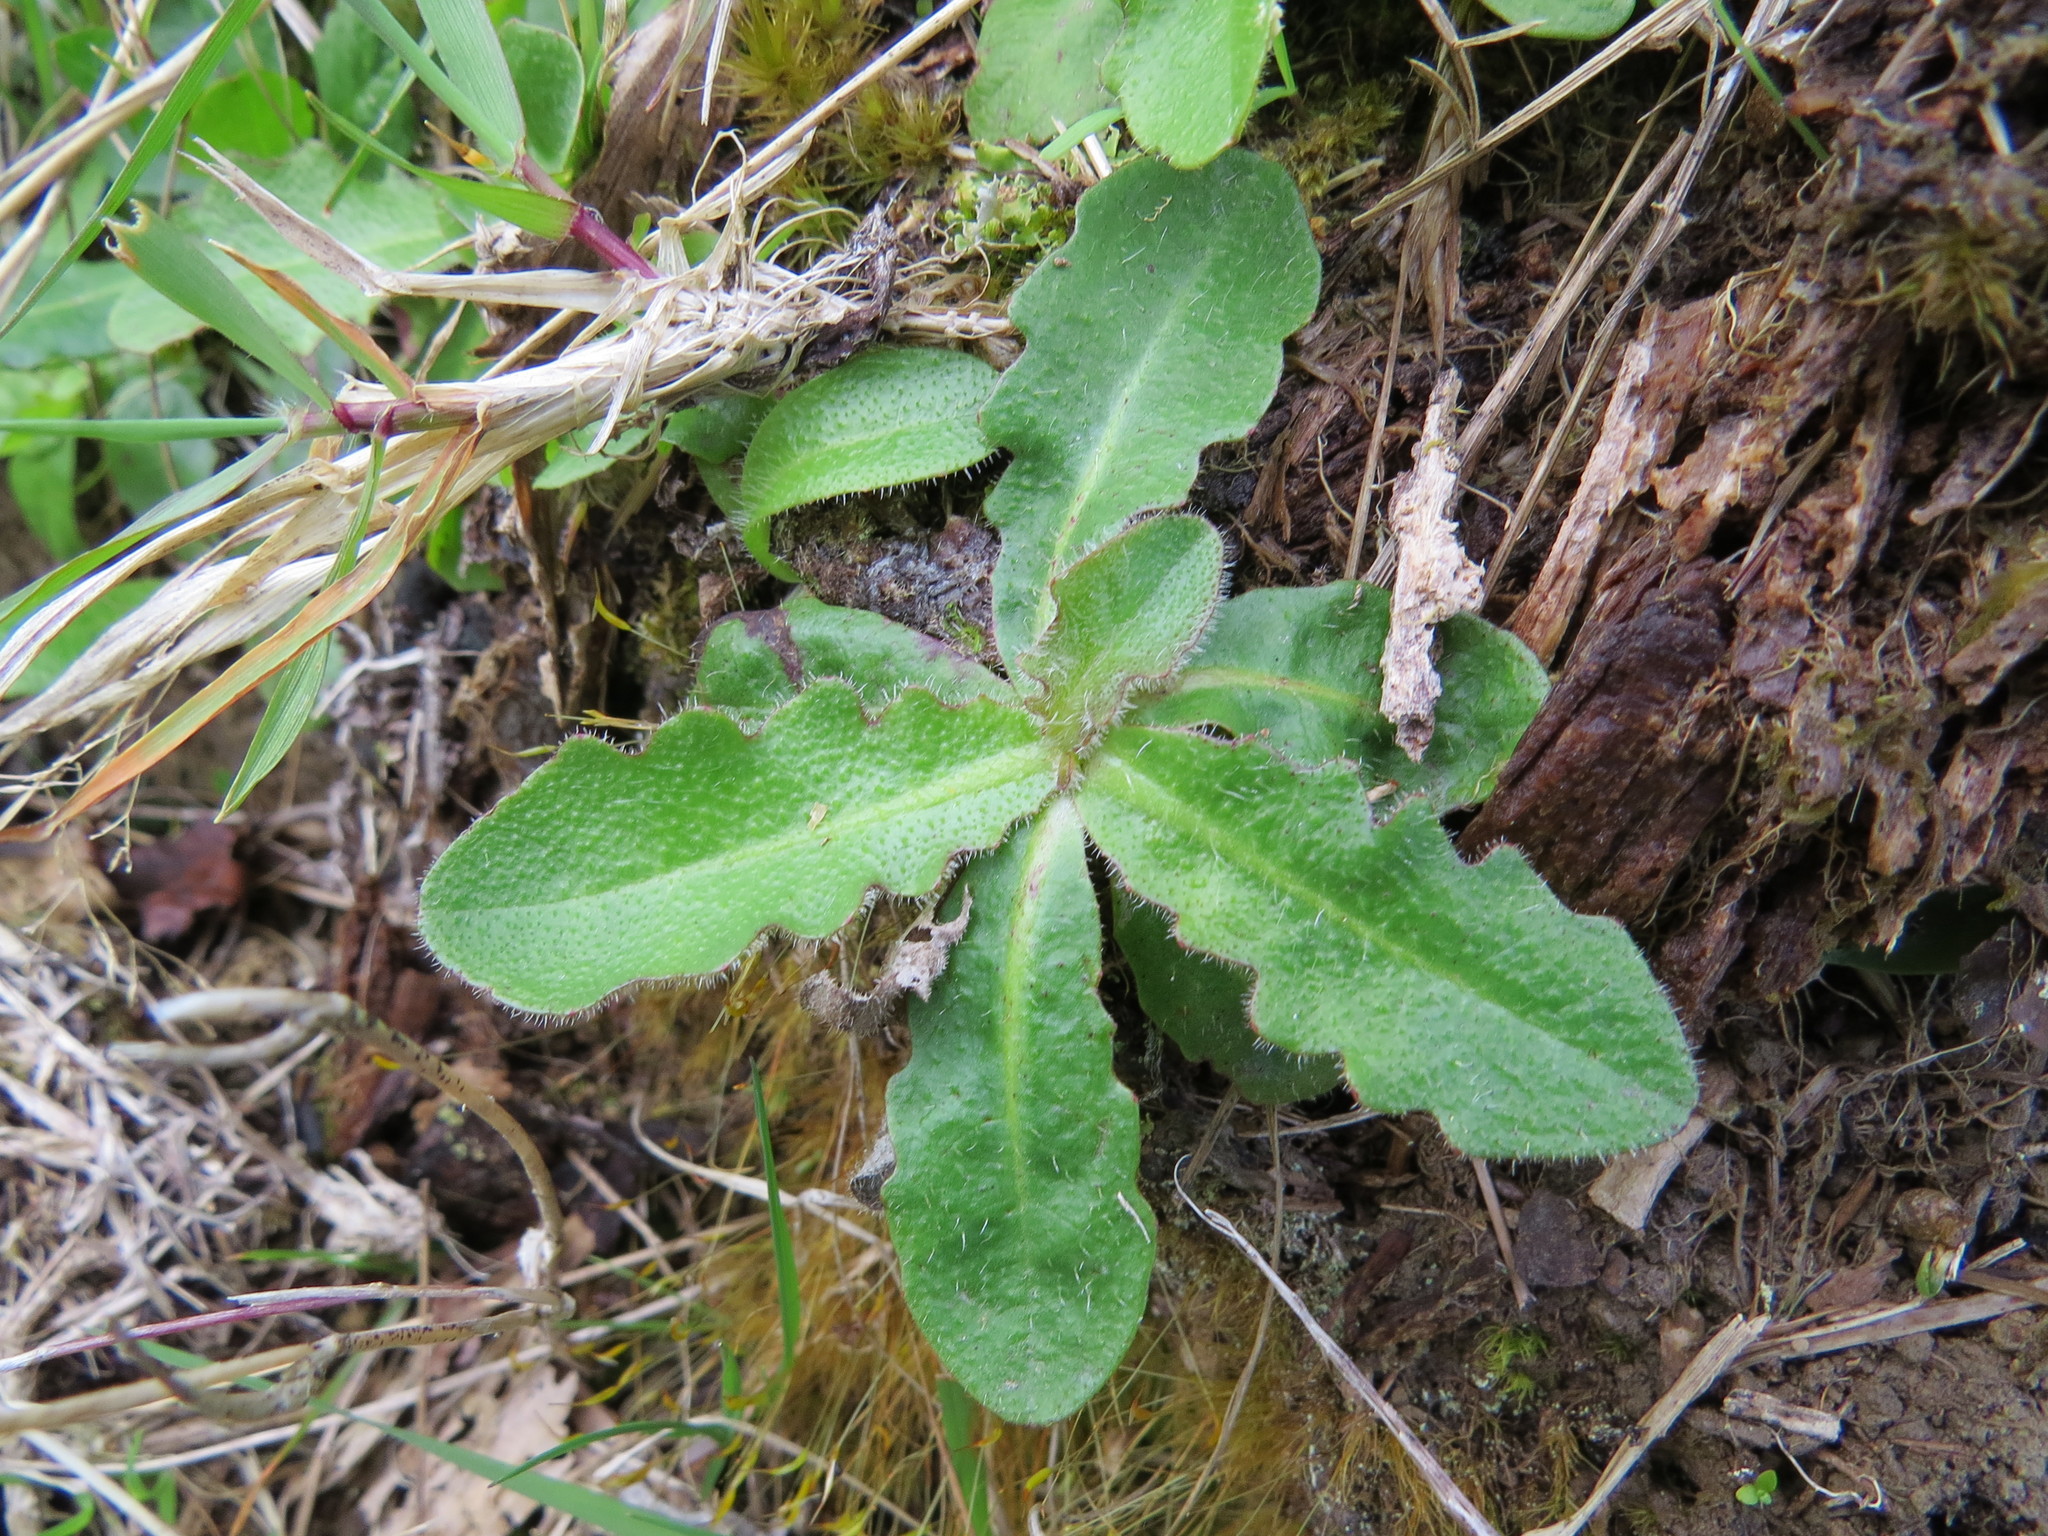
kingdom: Plantae
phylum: Tracheophyta
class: Magnoliopsida
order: Asterales
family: Asteraceae
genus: Hypochaeris
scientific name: Hypochaeris radicata
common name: Flatweed
